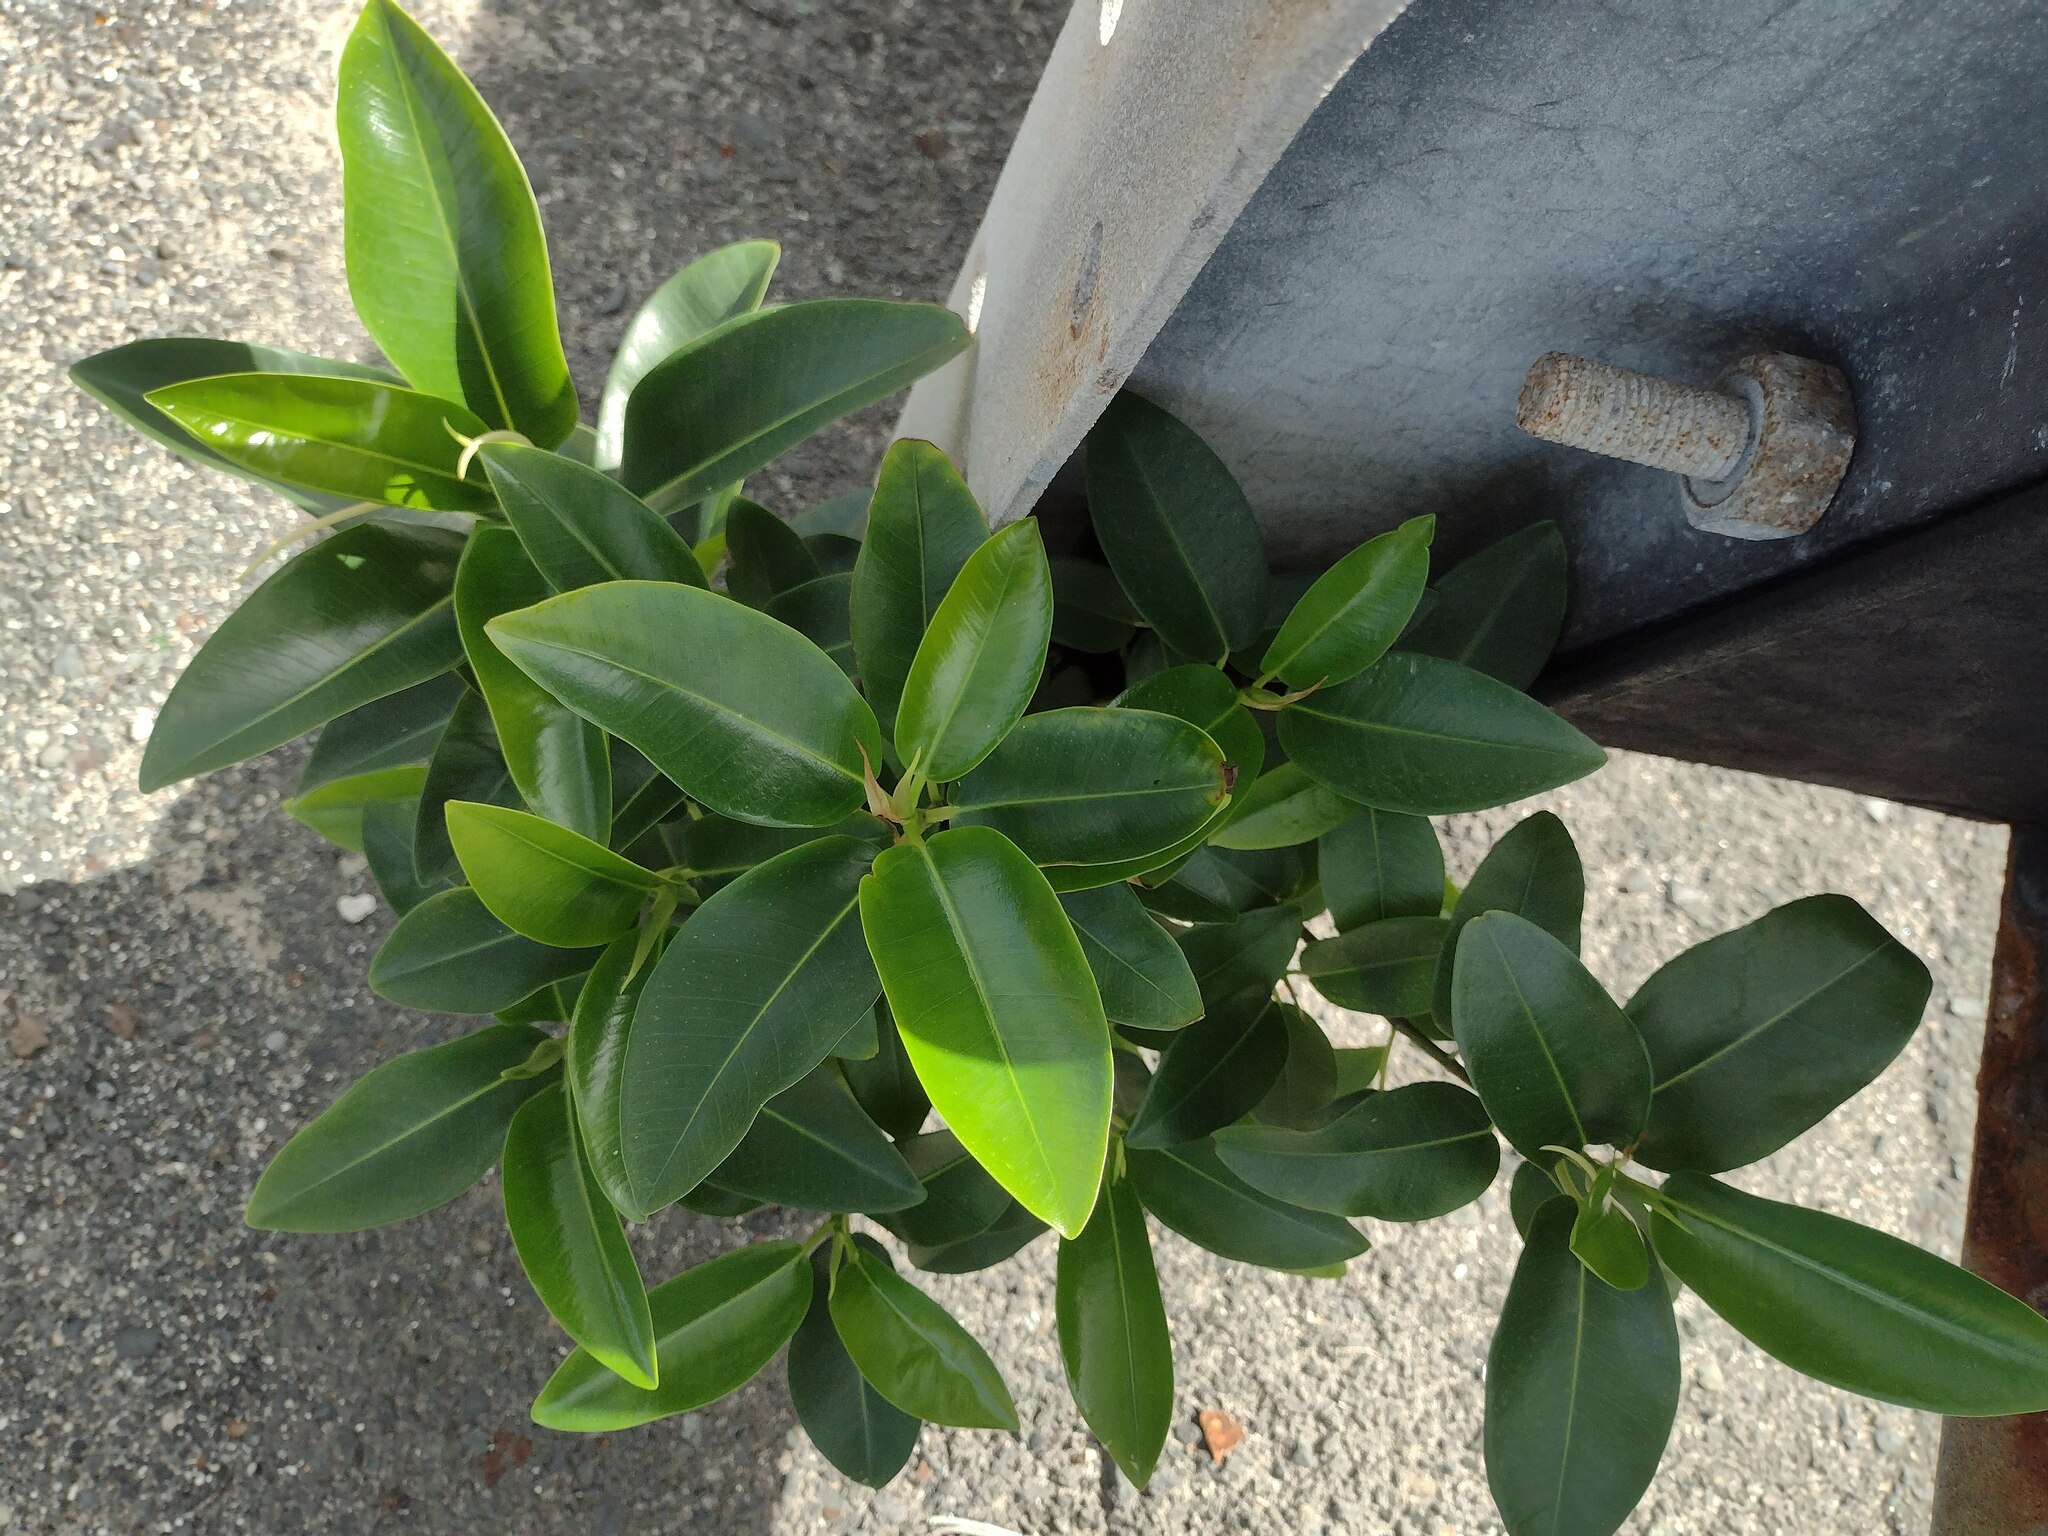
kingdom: Plantae
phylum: Tracheophyta
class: Magnoliopsida
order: Rosales
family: Moraceae
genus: Ficus
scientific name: Ficus rubiginosa
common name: Port jackson fig
